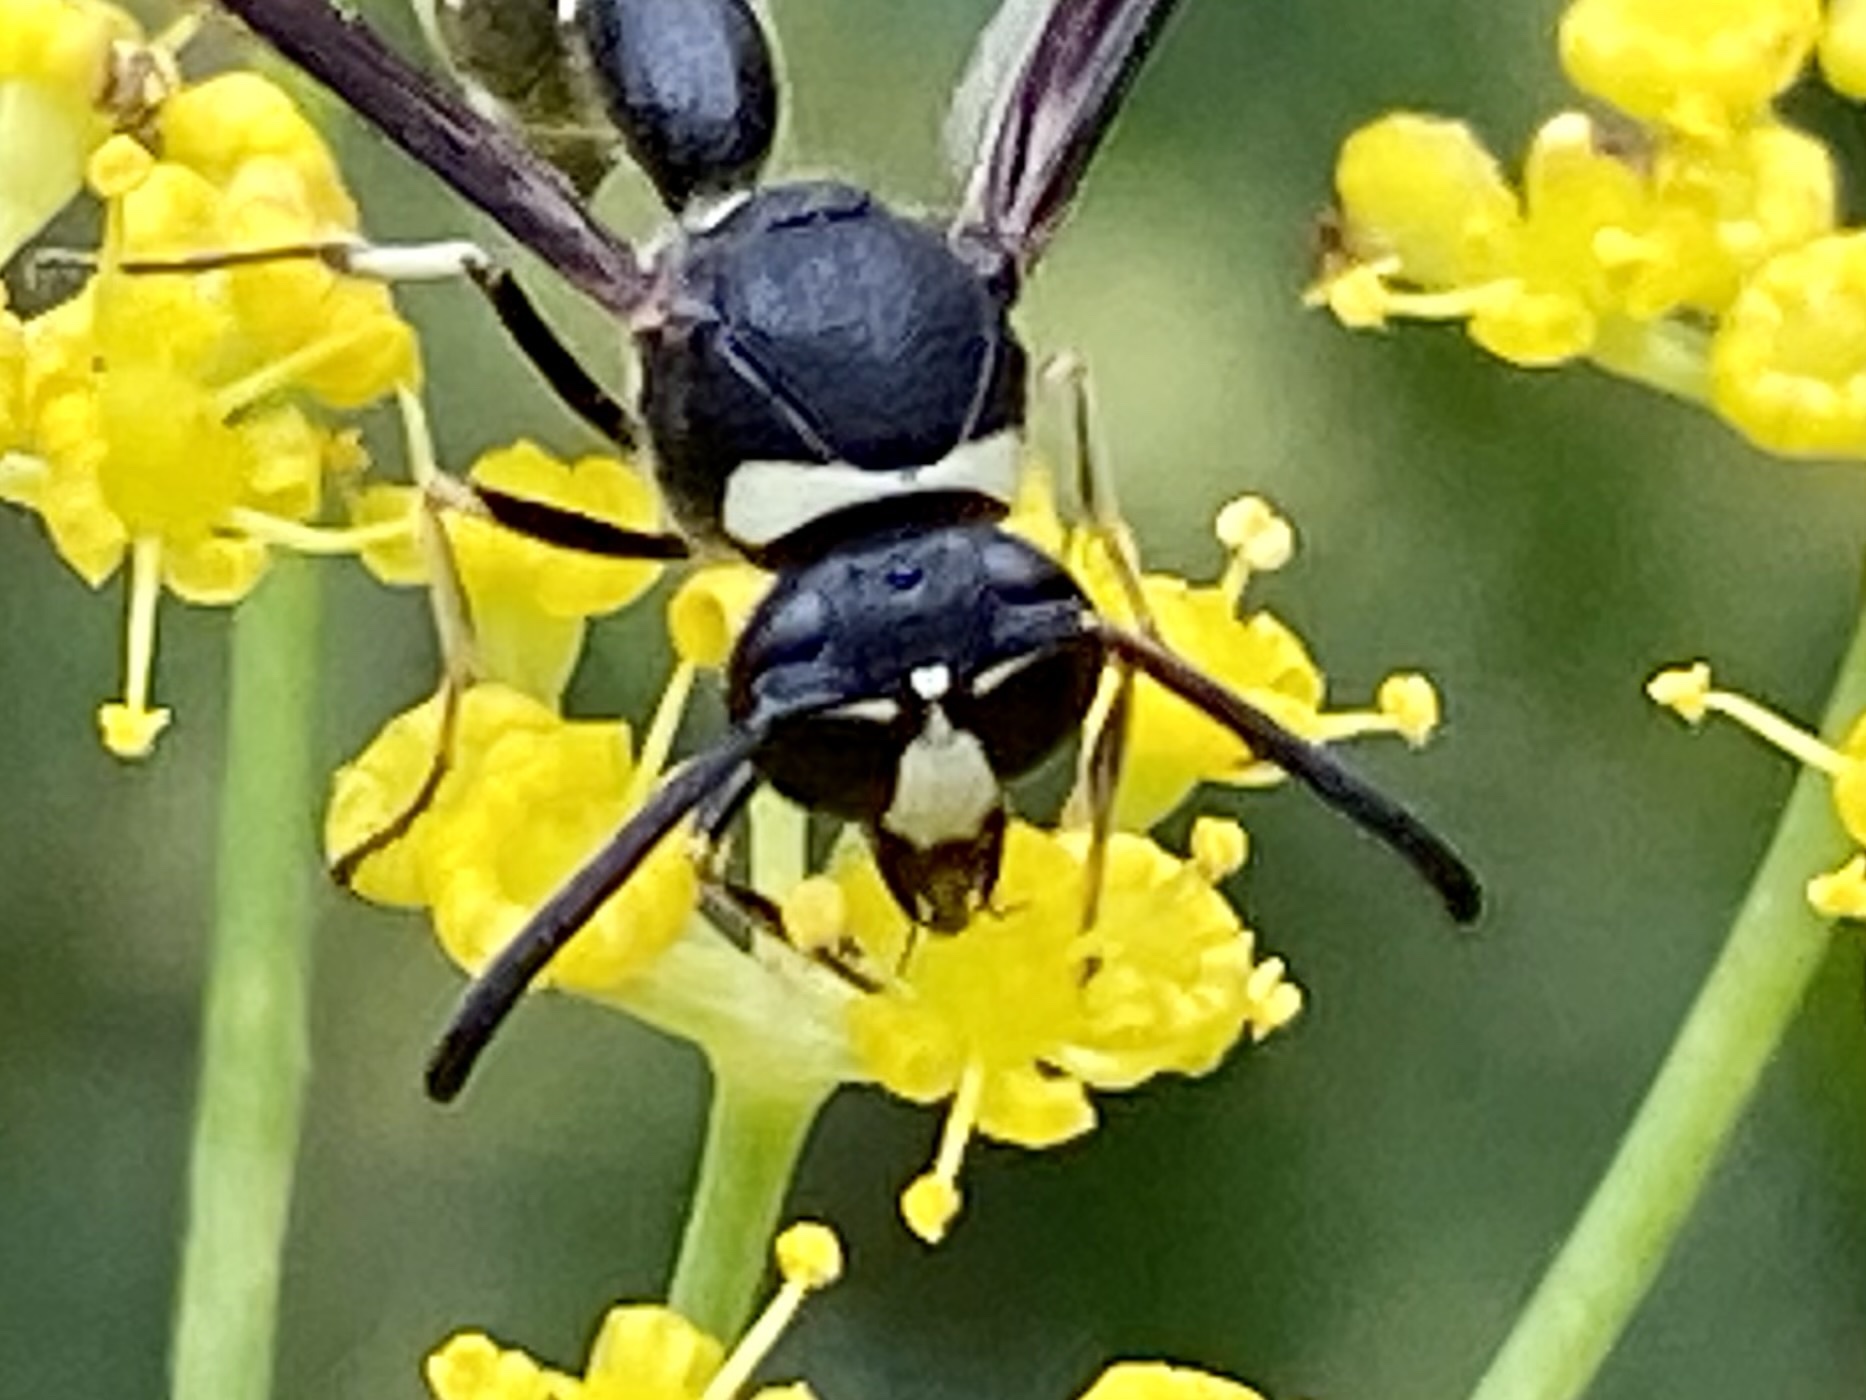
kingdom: Animalia
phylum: Arthropoda
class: Insecta
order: Hymenoptera
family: Vespidae
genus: Eumenes
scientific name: Eumenes fraternus
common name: Fraternal potter wasp
